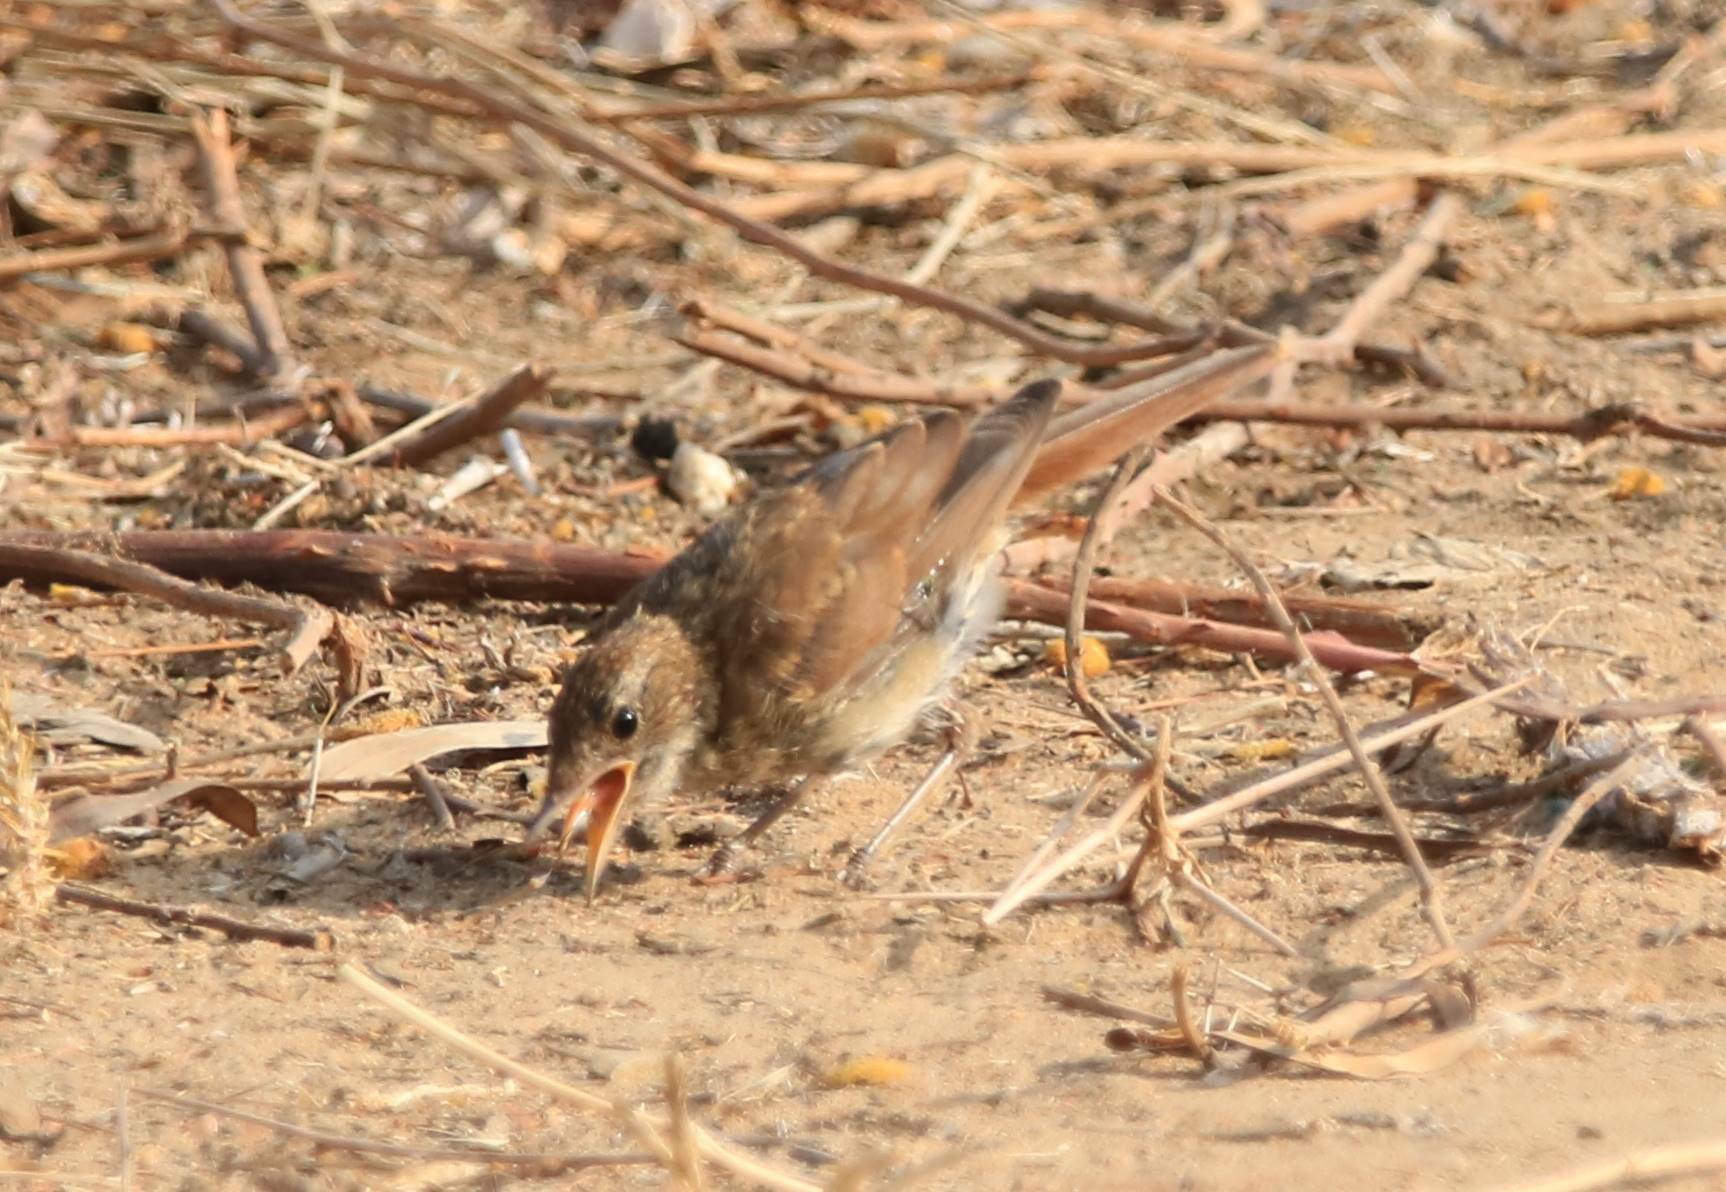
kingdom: Animalia
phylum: Chordata
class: Aves
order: Passeriformes
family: Muscicapidae
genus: Luscinia
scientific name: Luscinia megarhynchos
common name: Common nightingale
